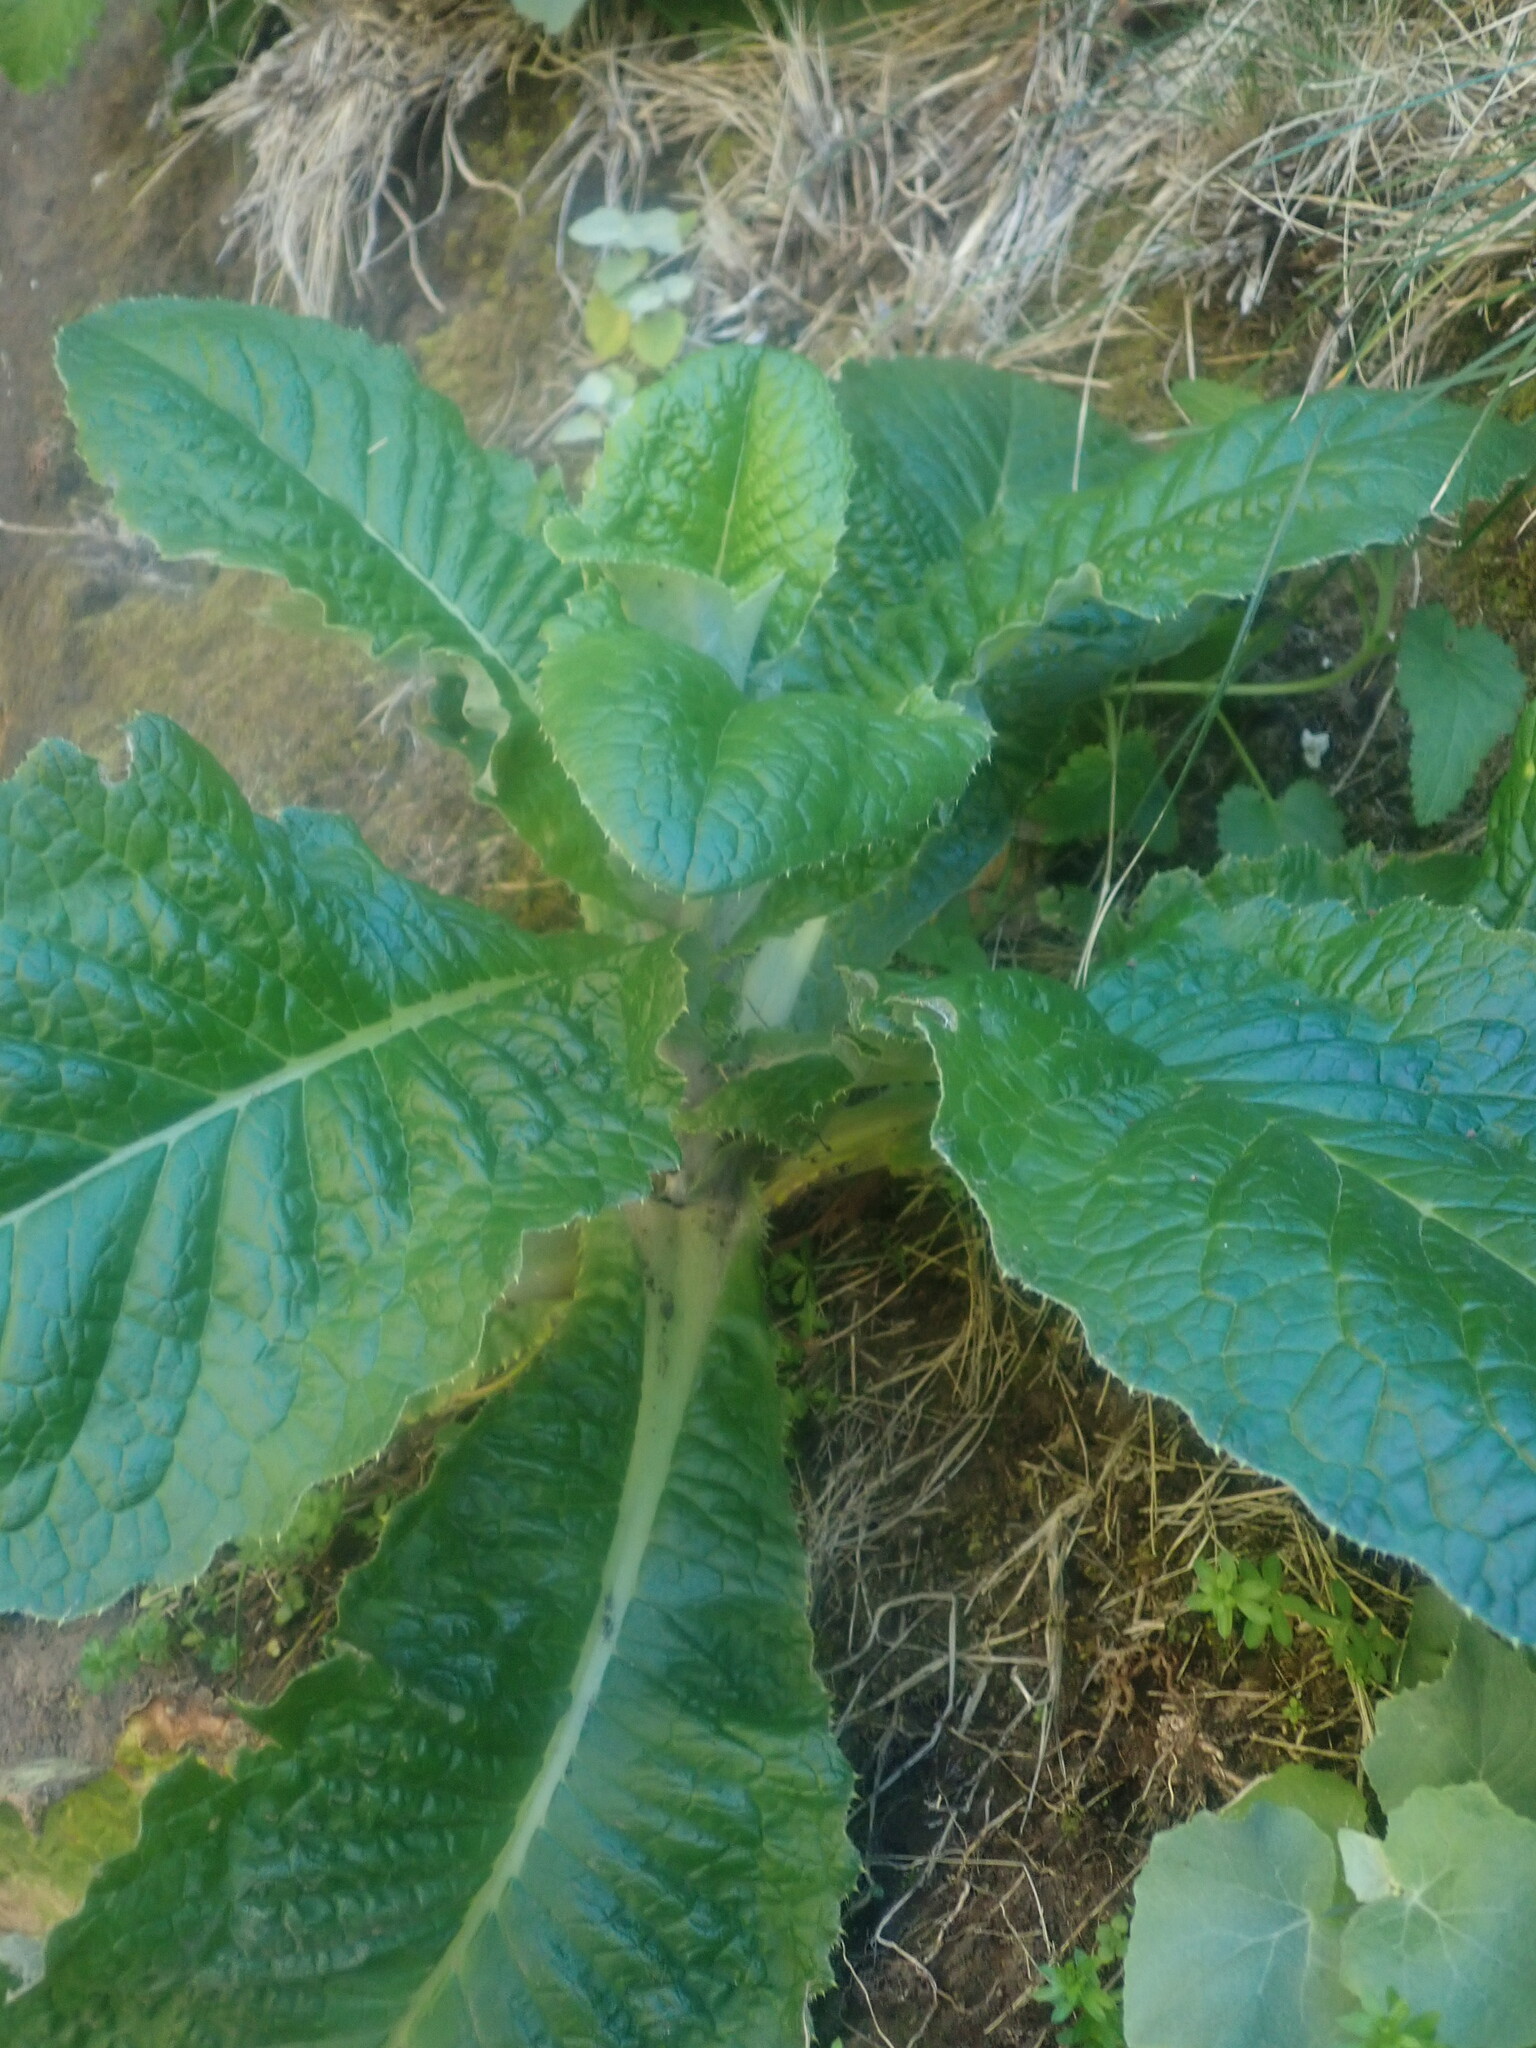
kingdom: Plantae
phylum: Tracheophyta
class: Magnoliopsida
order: Asterales
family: Asteraceae
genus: Cirsium
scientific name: Cirsium latifolium
